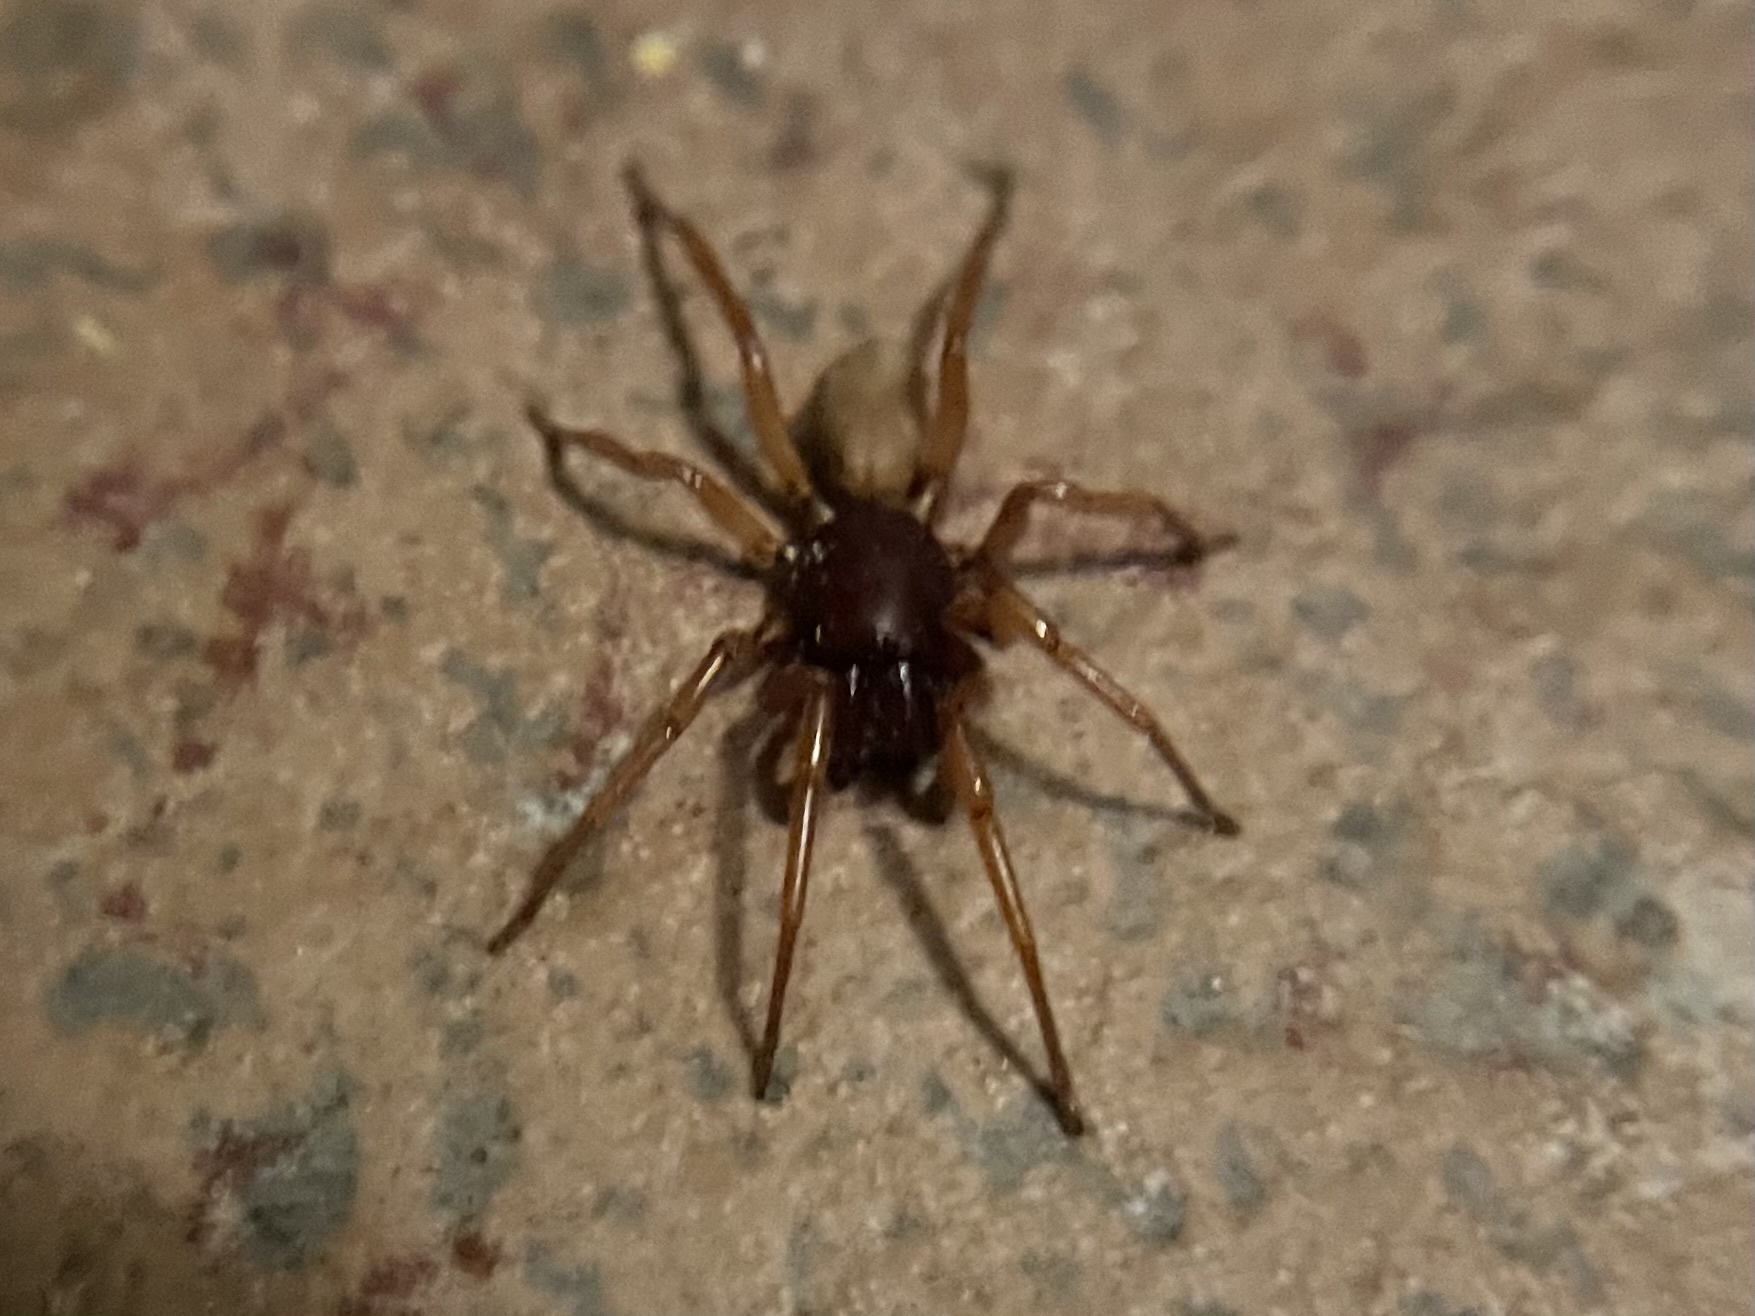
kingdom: Animalia
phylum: Arthropoda
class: Arachnida
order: Araneae
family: Dysderidae
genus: Dysdera
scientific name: Dysdera crocata
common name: Woodlouse spider
